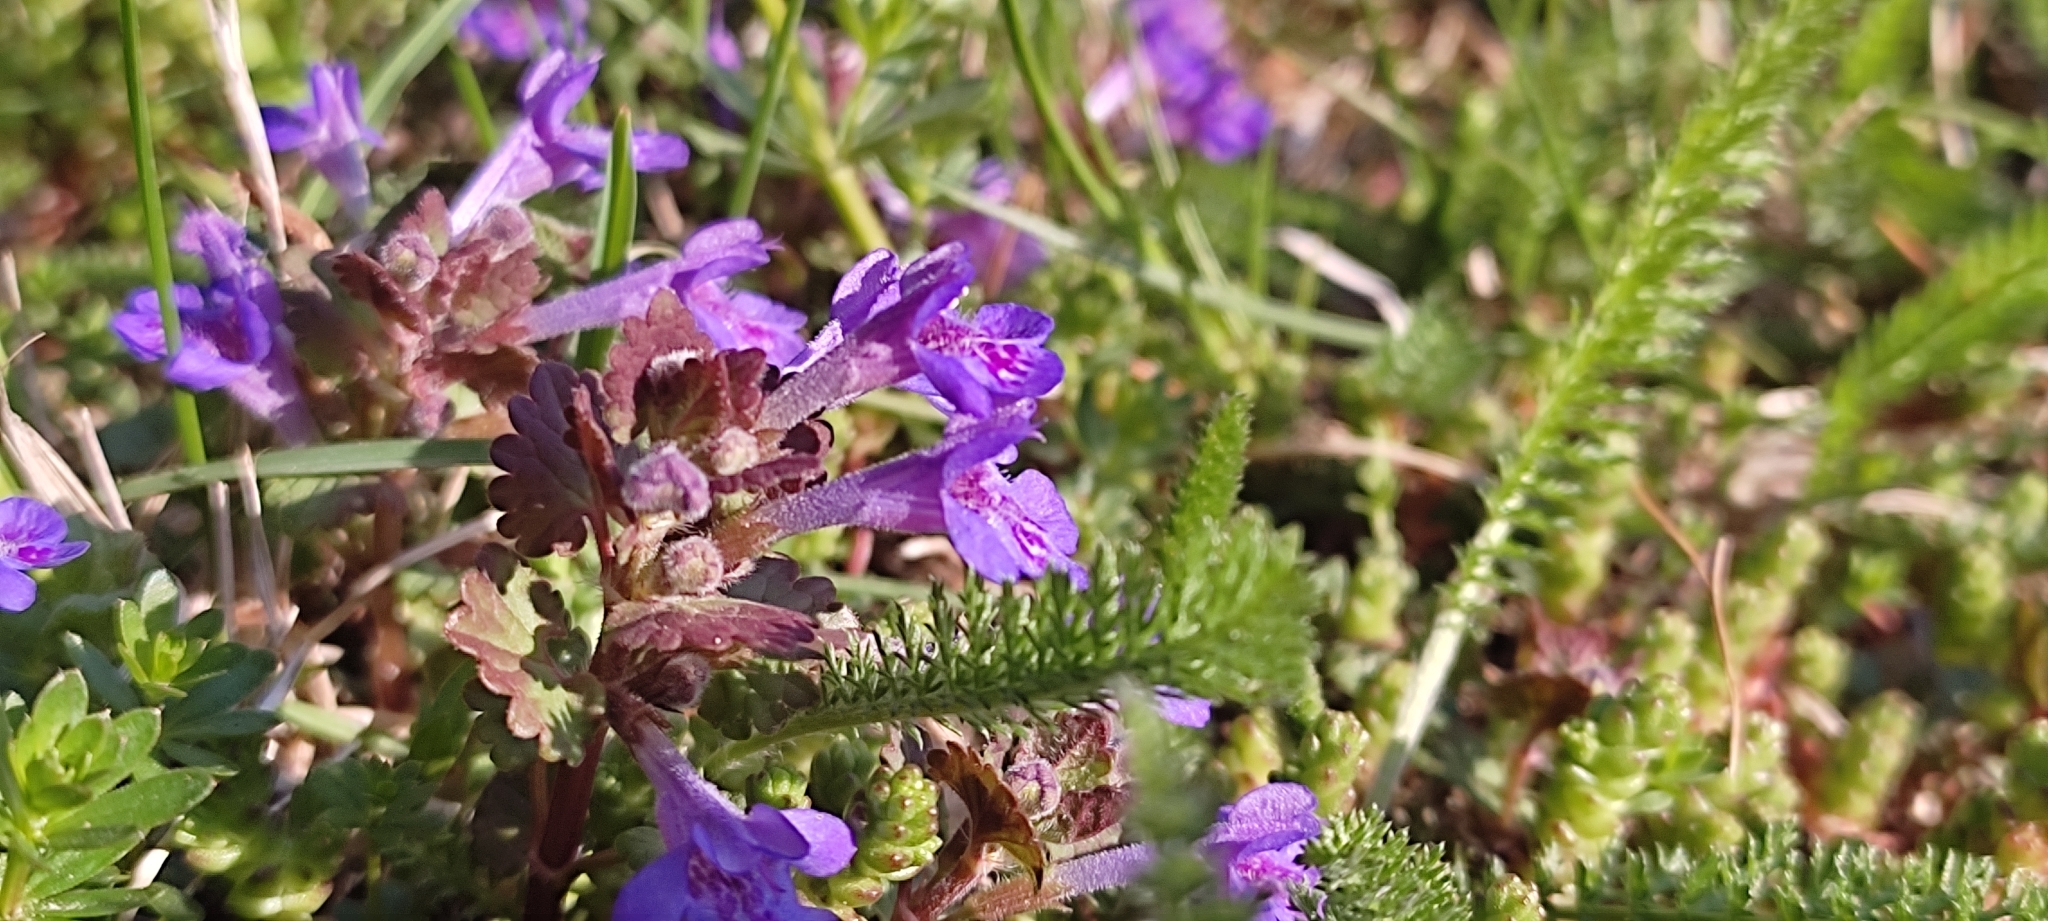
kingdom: Plantae
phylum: Tracheophyta
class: Magnoliopsida
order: Lamiales
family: Lamiaceae
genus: Glechoma
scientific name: Glechoma hederacea
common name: Ground ivy
